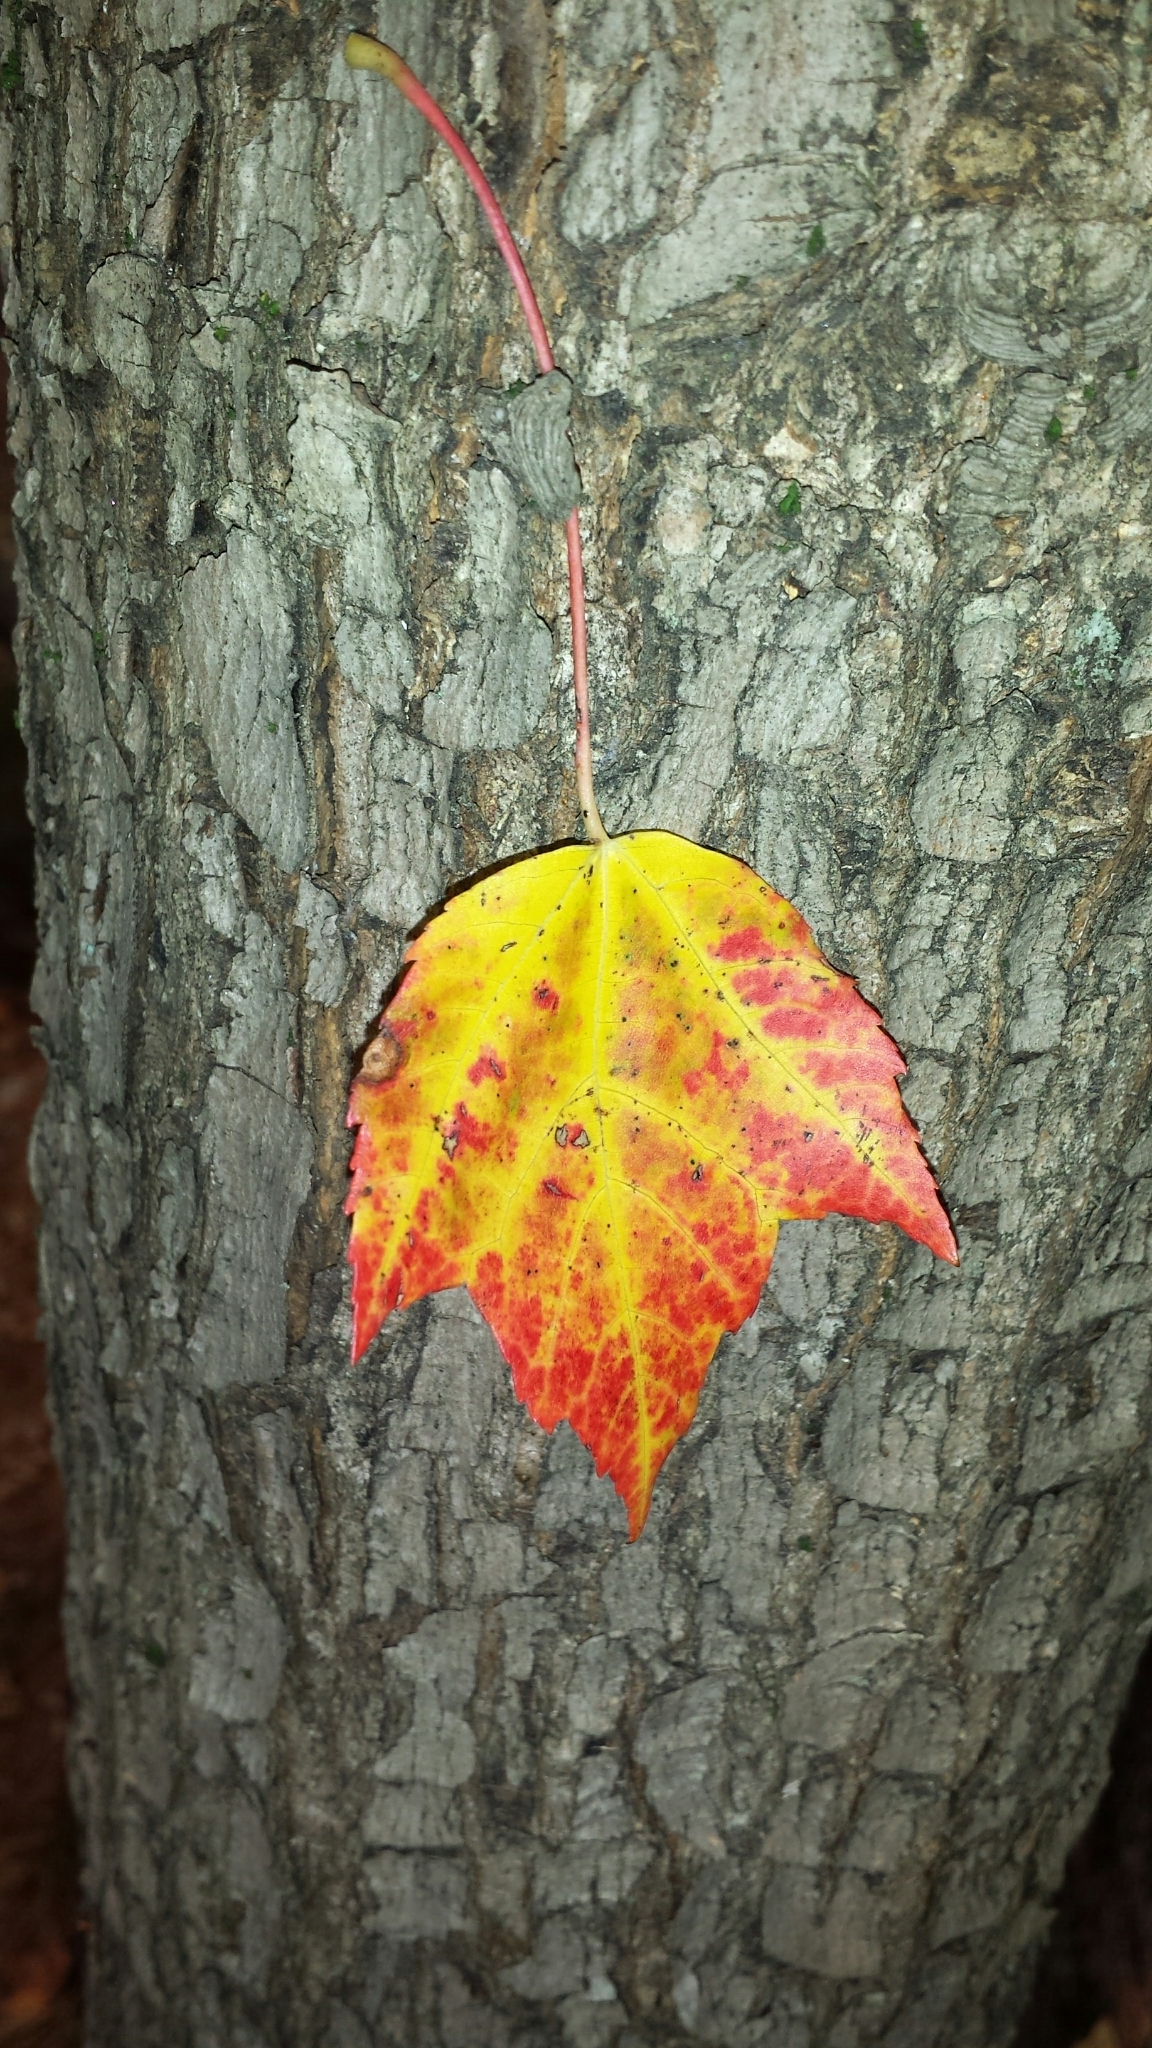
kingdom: Plantae
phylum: Tracheophyta
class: Magnoliopsida
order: Sapindales
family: Sapindaceae
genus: Acer
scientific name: Acer rubrum
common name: Red maple
